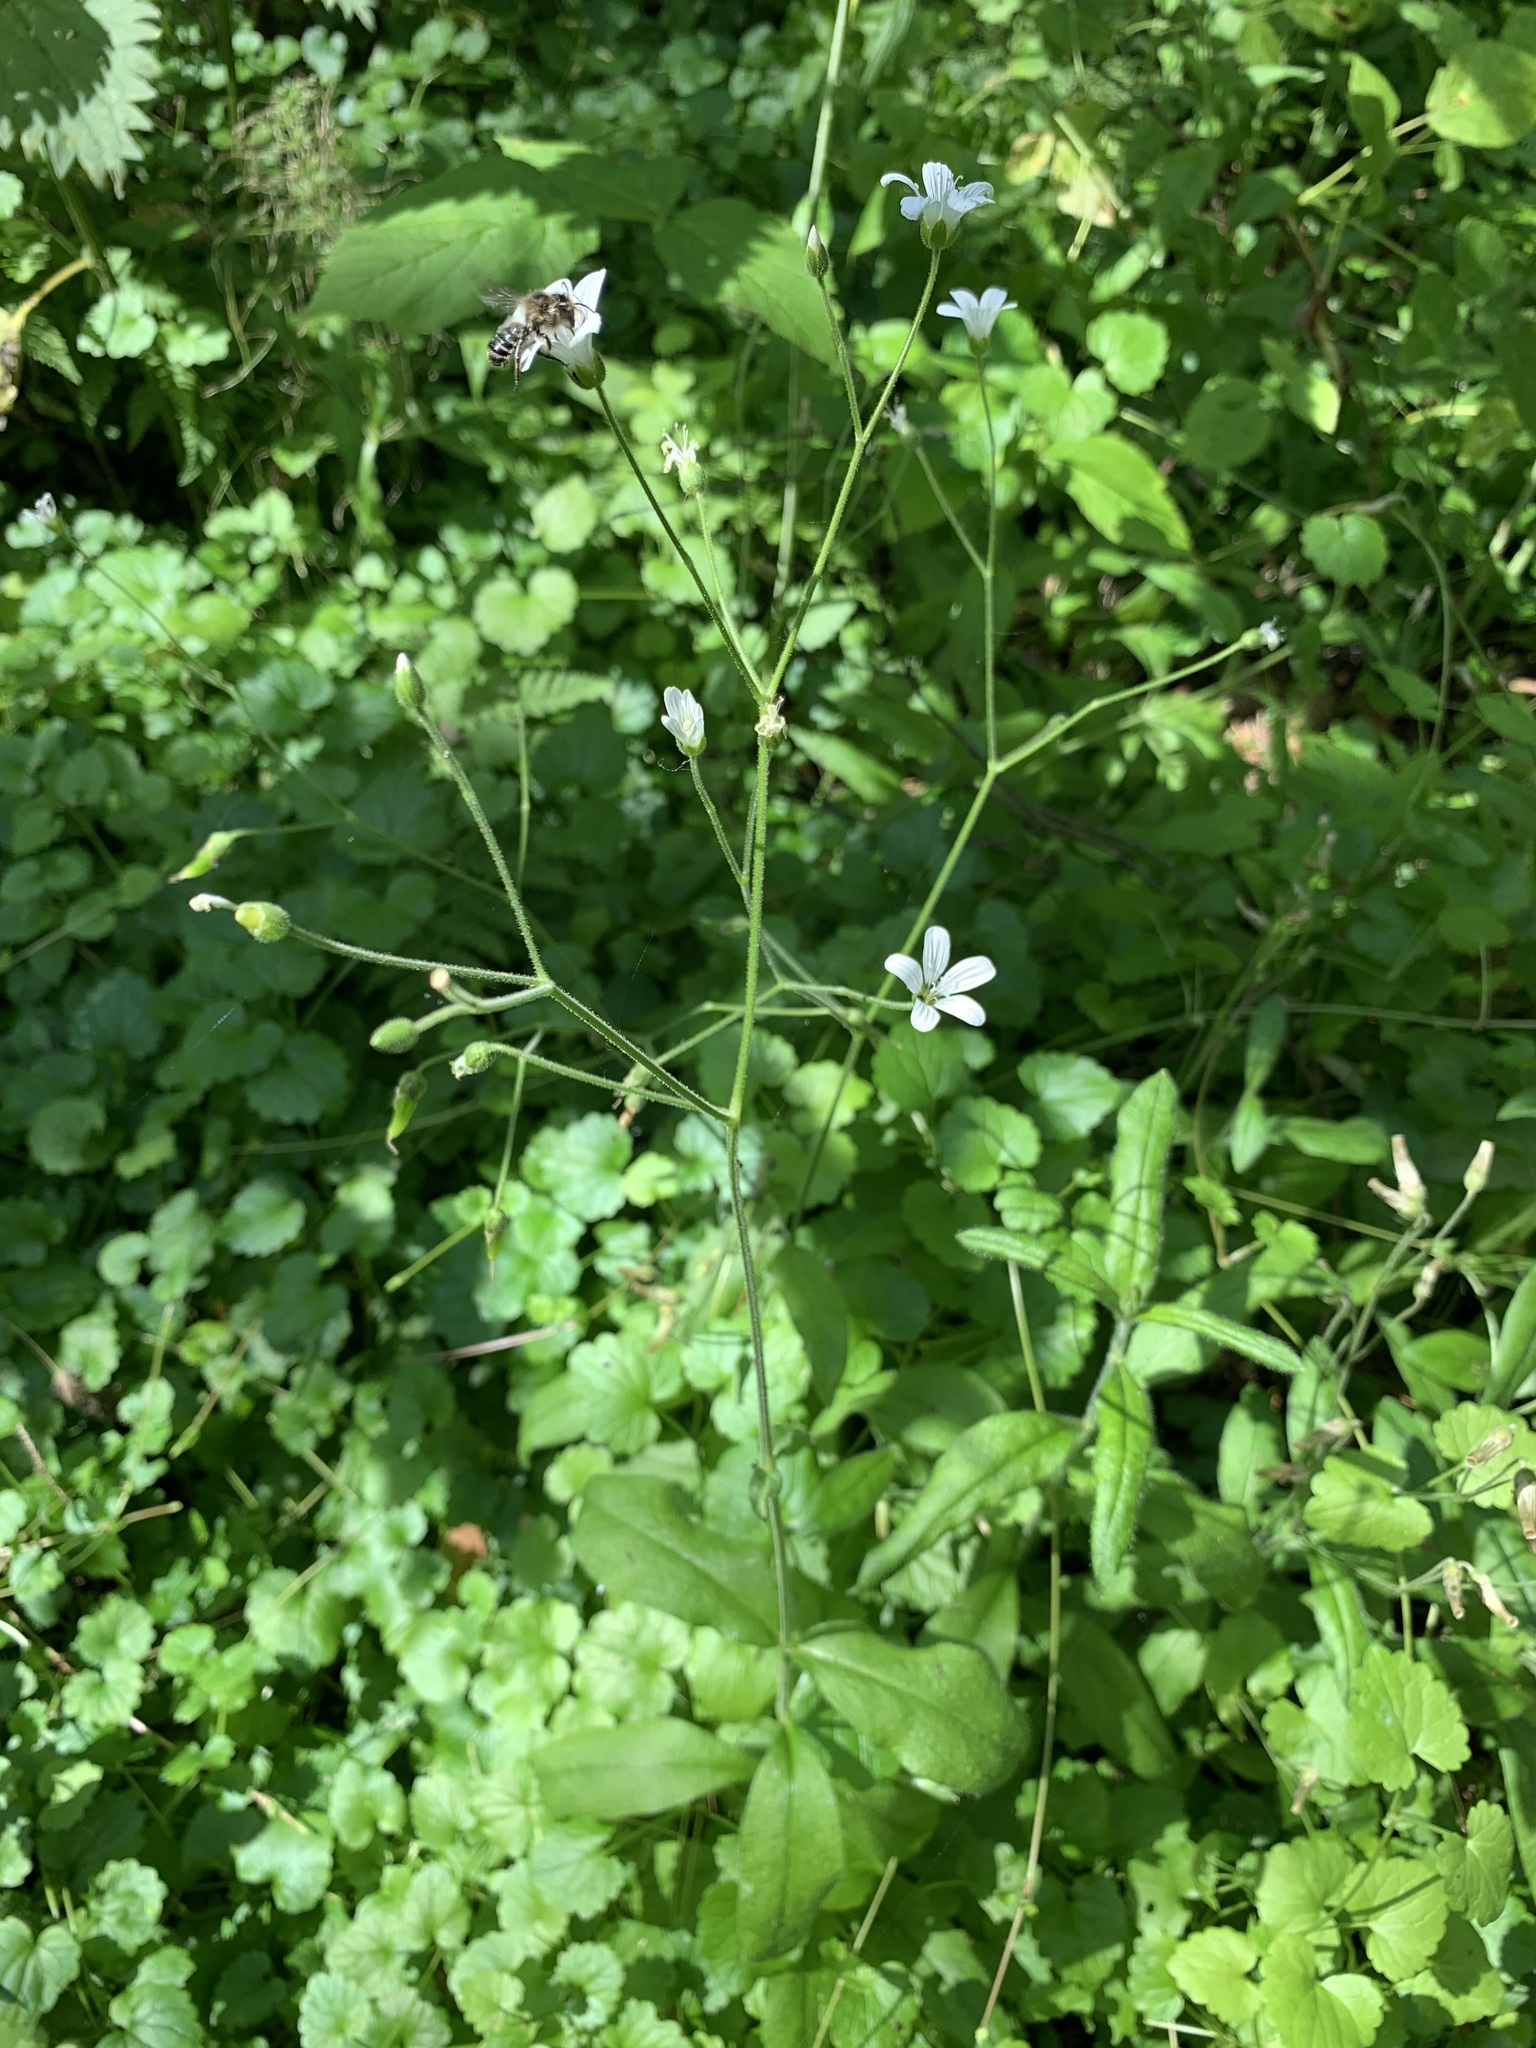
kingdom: Plantae
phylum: Tracheophyta
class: Magnoliopsida
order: Caryophyllales
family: Caryophyllaceae
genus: Cerastium
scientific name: Cerastium pauciflorum
